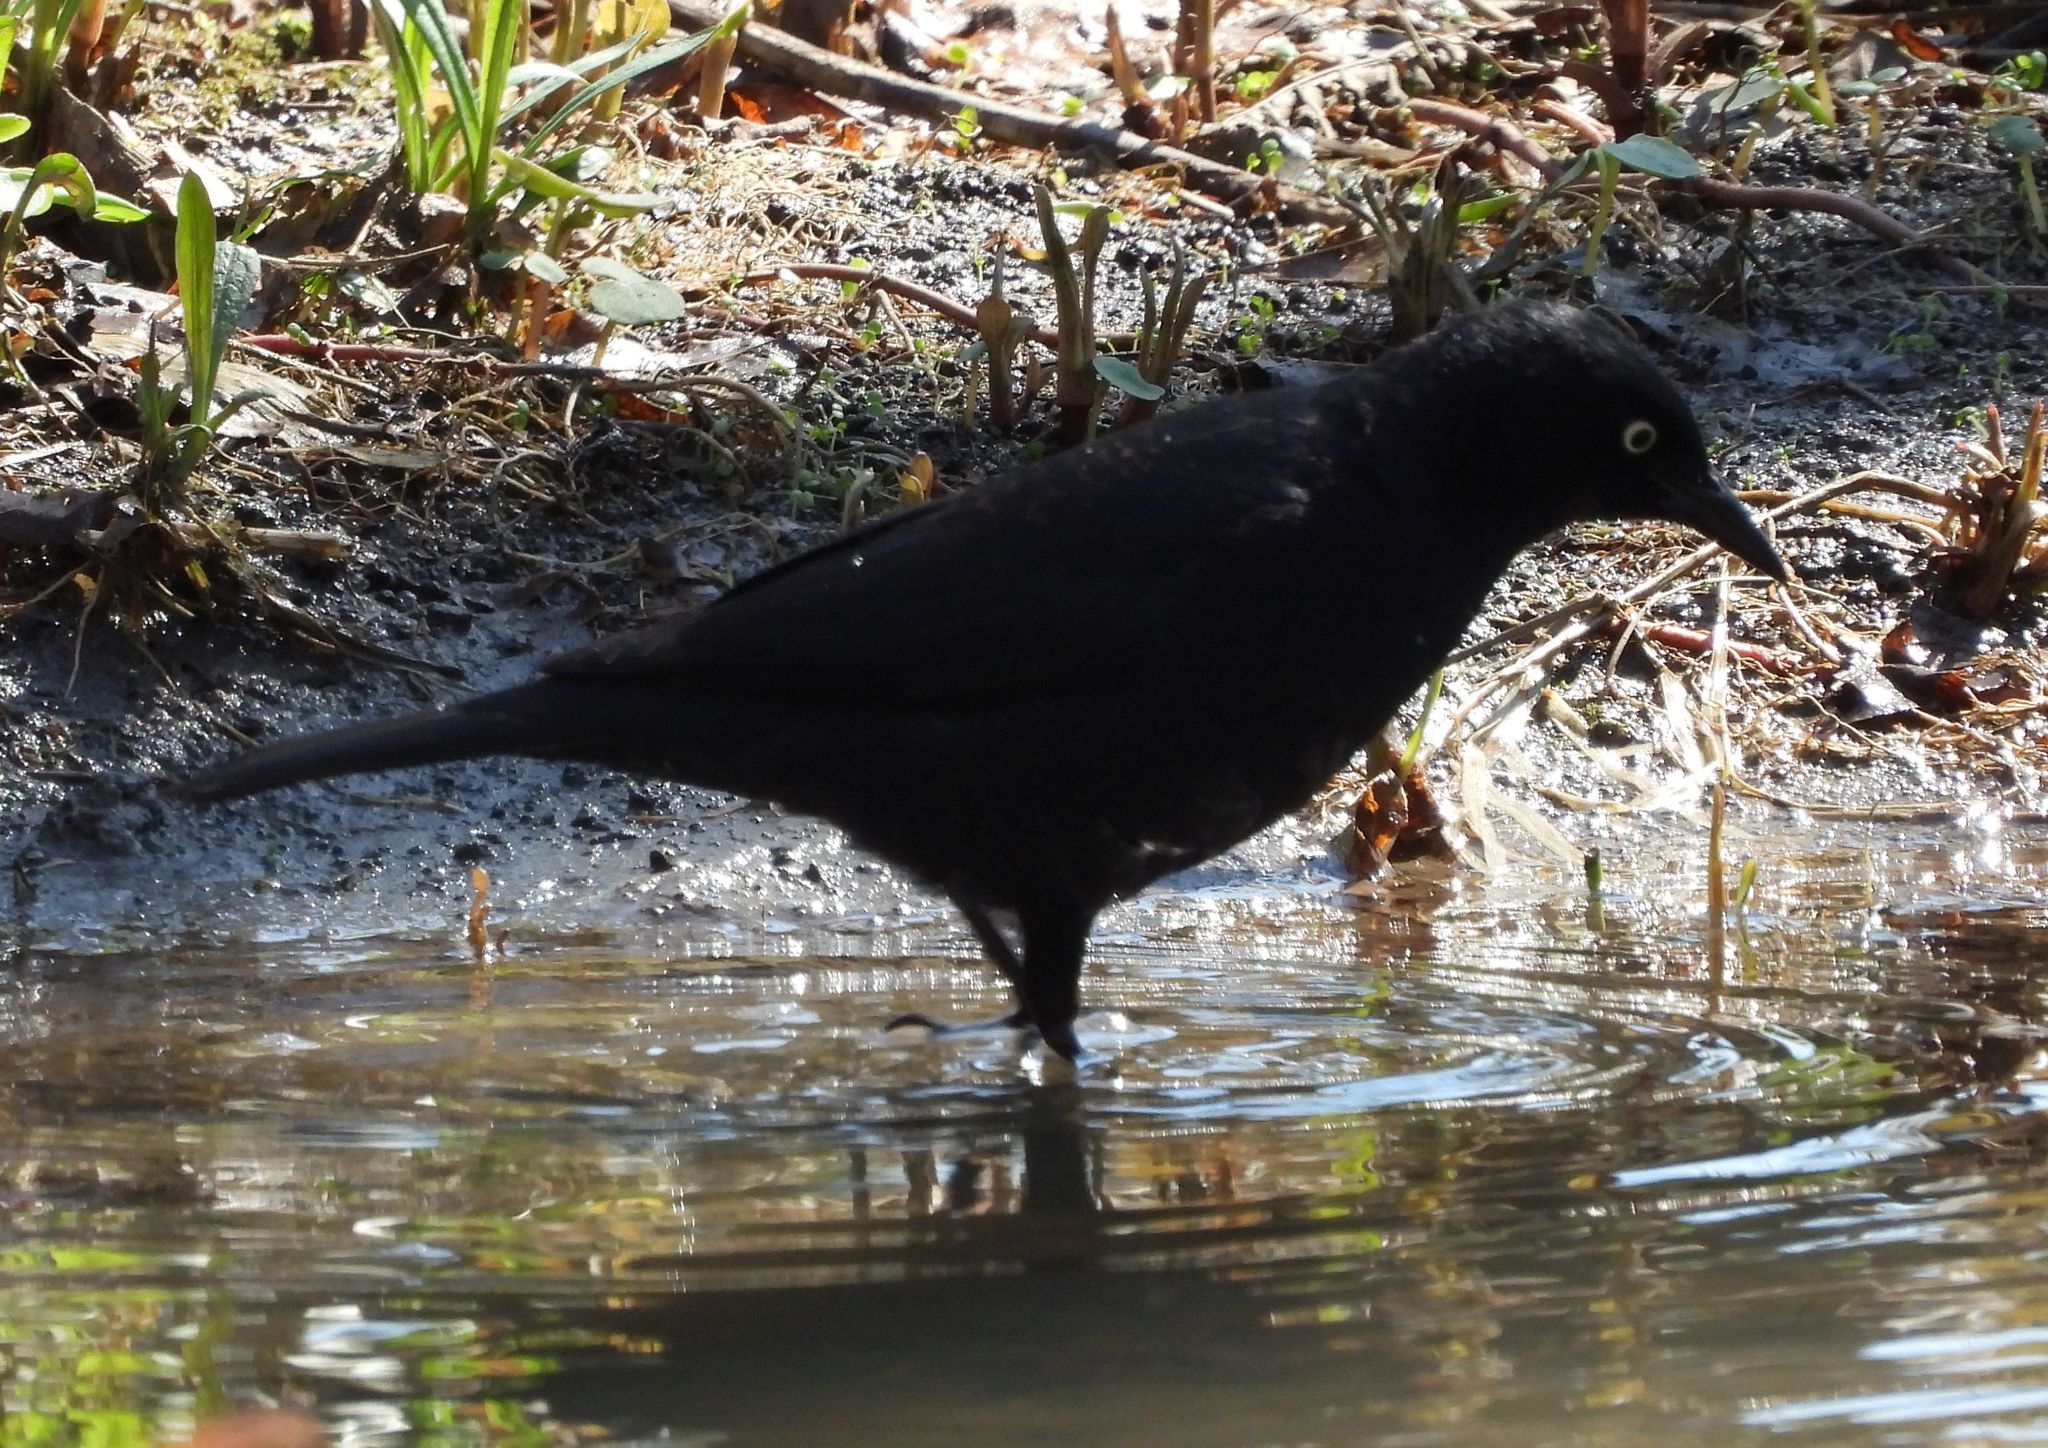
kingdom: Animalia
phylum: Chordata
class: Aves
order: Passeriformes
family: Icteridae
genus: Euphagus
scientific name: Euphagus carolinus
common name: Rusty blackbird
